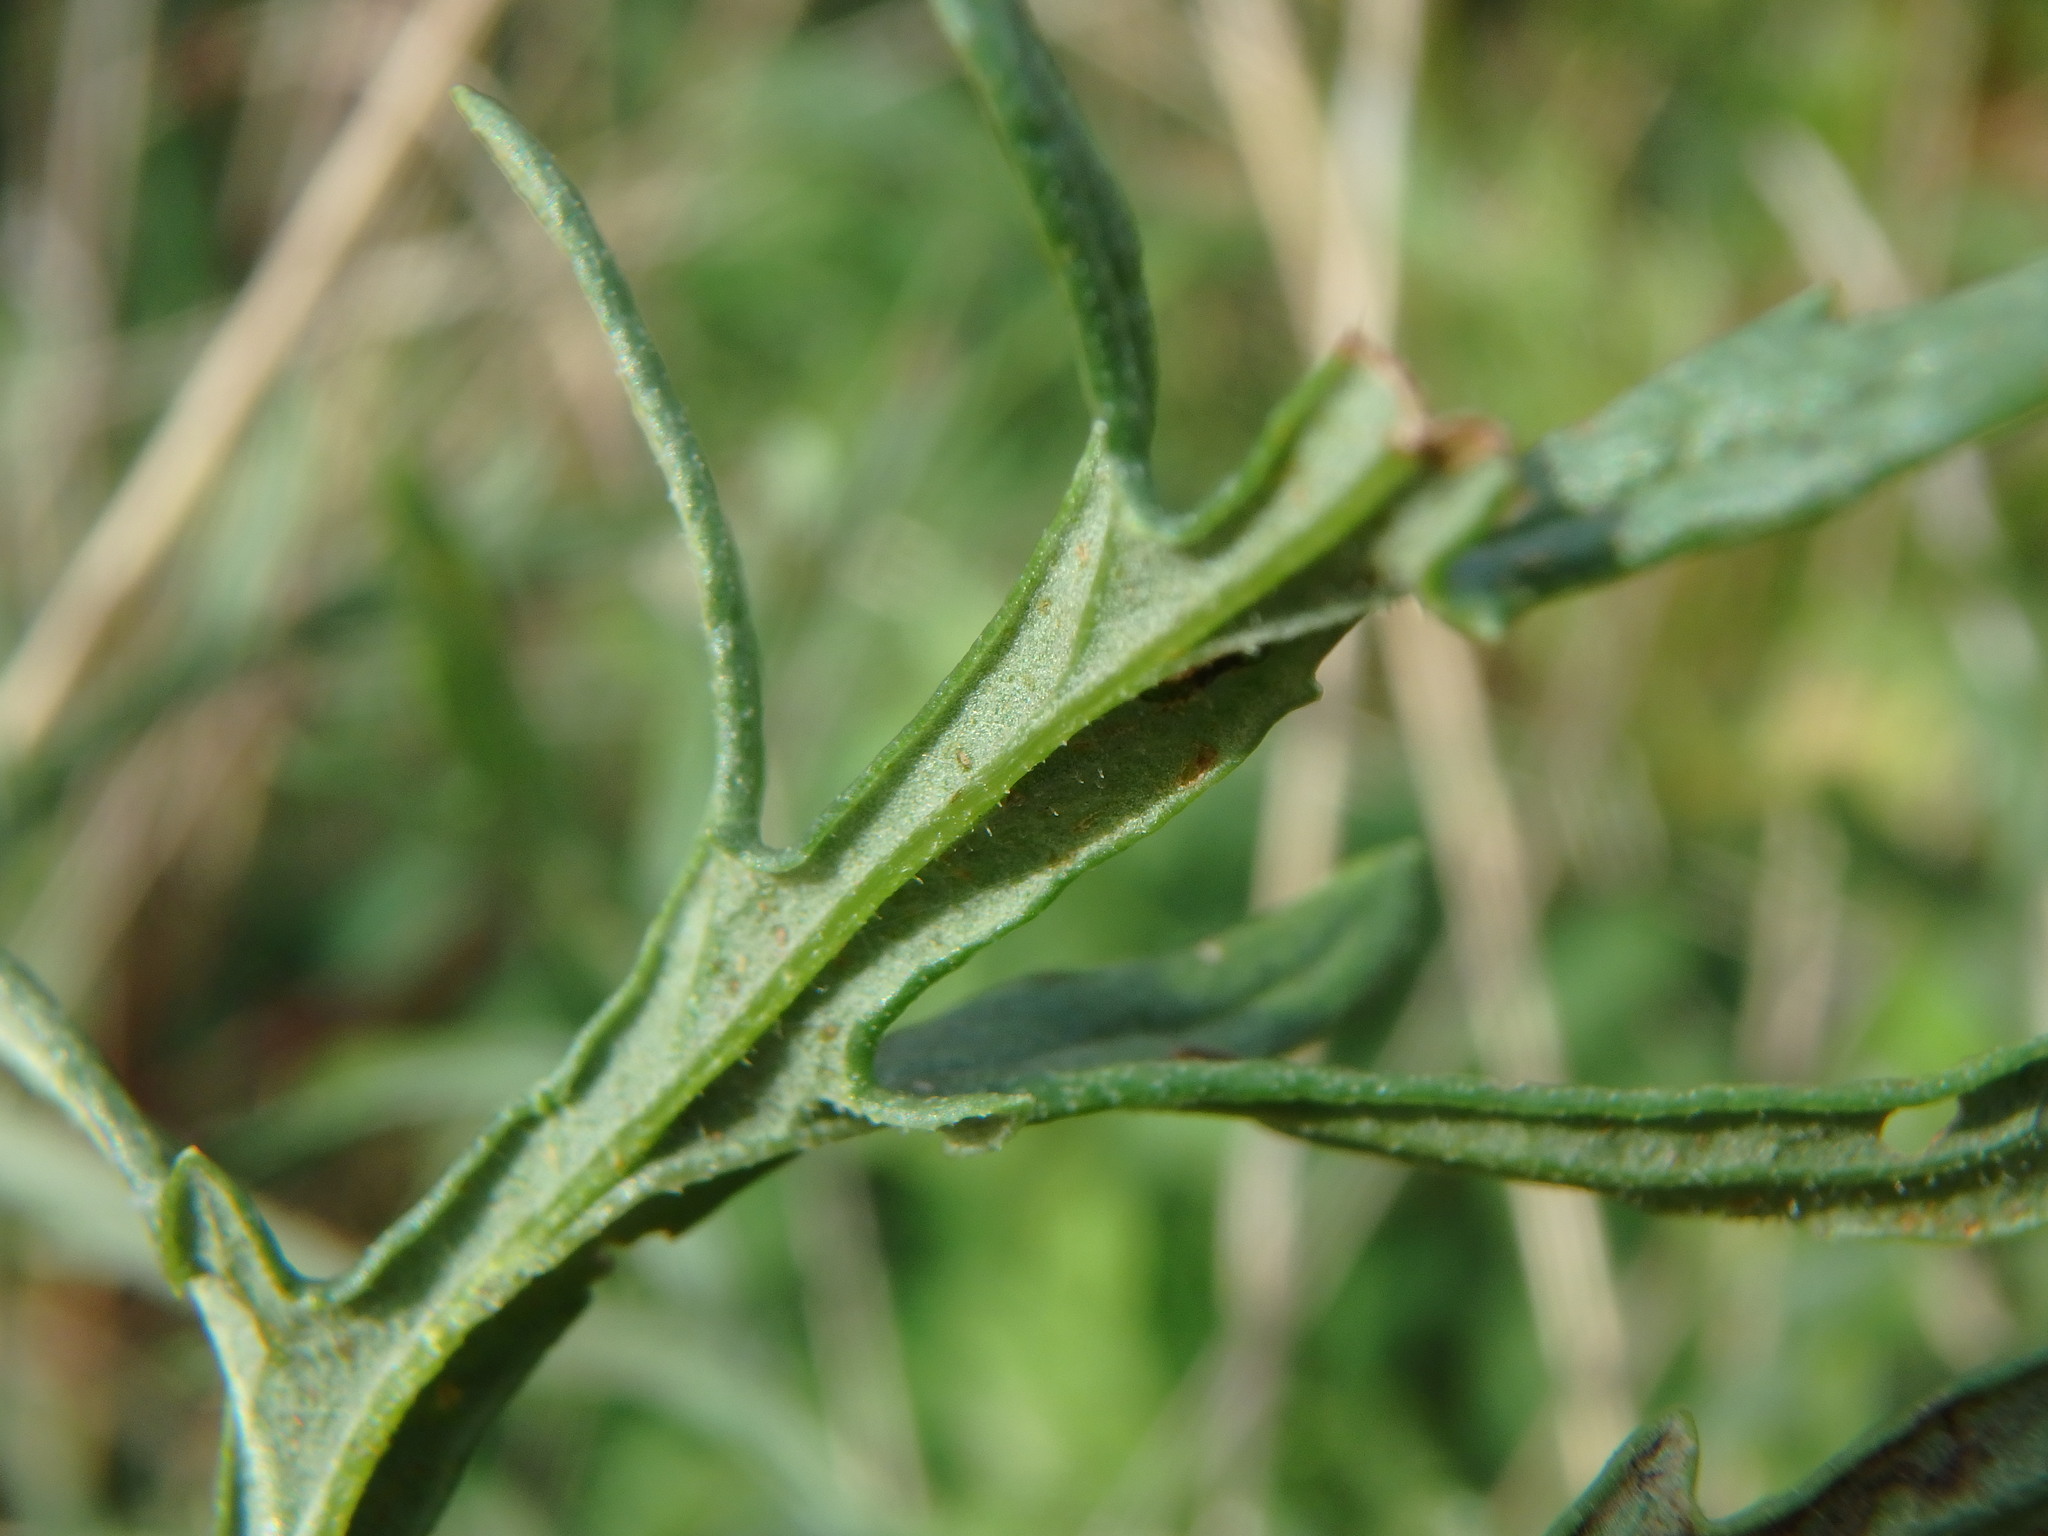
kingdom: Plantae
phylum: Tracheophyta
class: Magnoliopsida
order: Asterales
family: Asteraceae
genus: Jacobaea
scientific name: Jacobaea erucifolia
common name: Hoary ragwort
